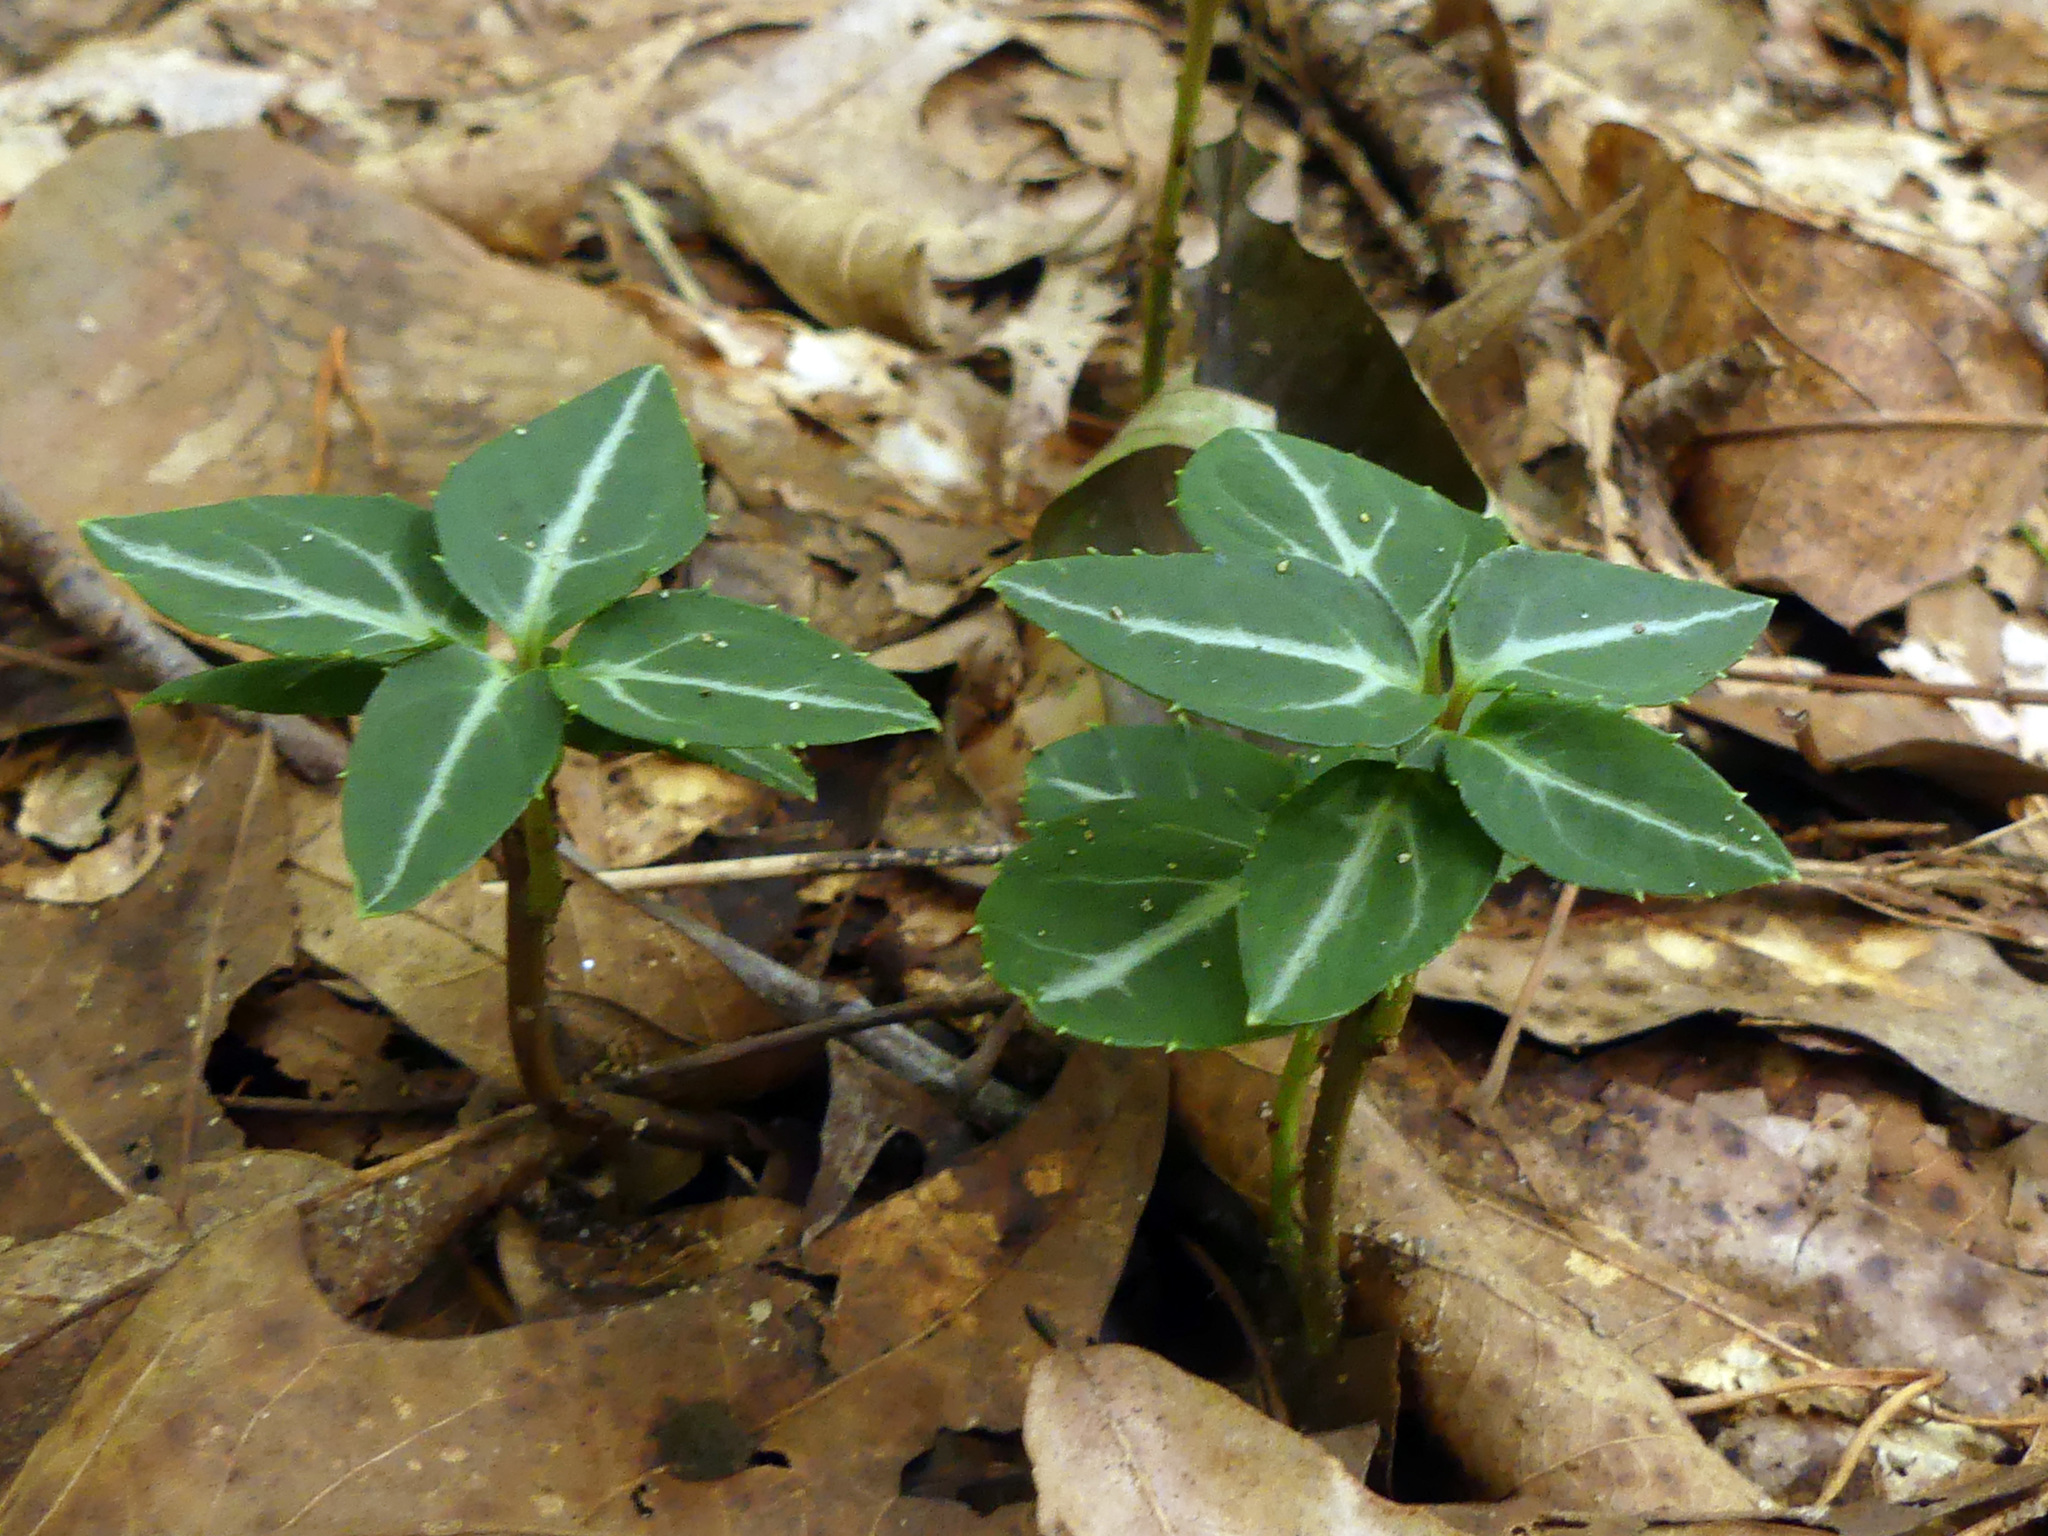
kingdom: Plantae
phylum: Tracheophyta
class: Magnoliopsida
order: Ericales
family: Ericaceae
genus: Chimaphila
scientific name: Chimaphila maculata
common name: Spotted pipsissewa
